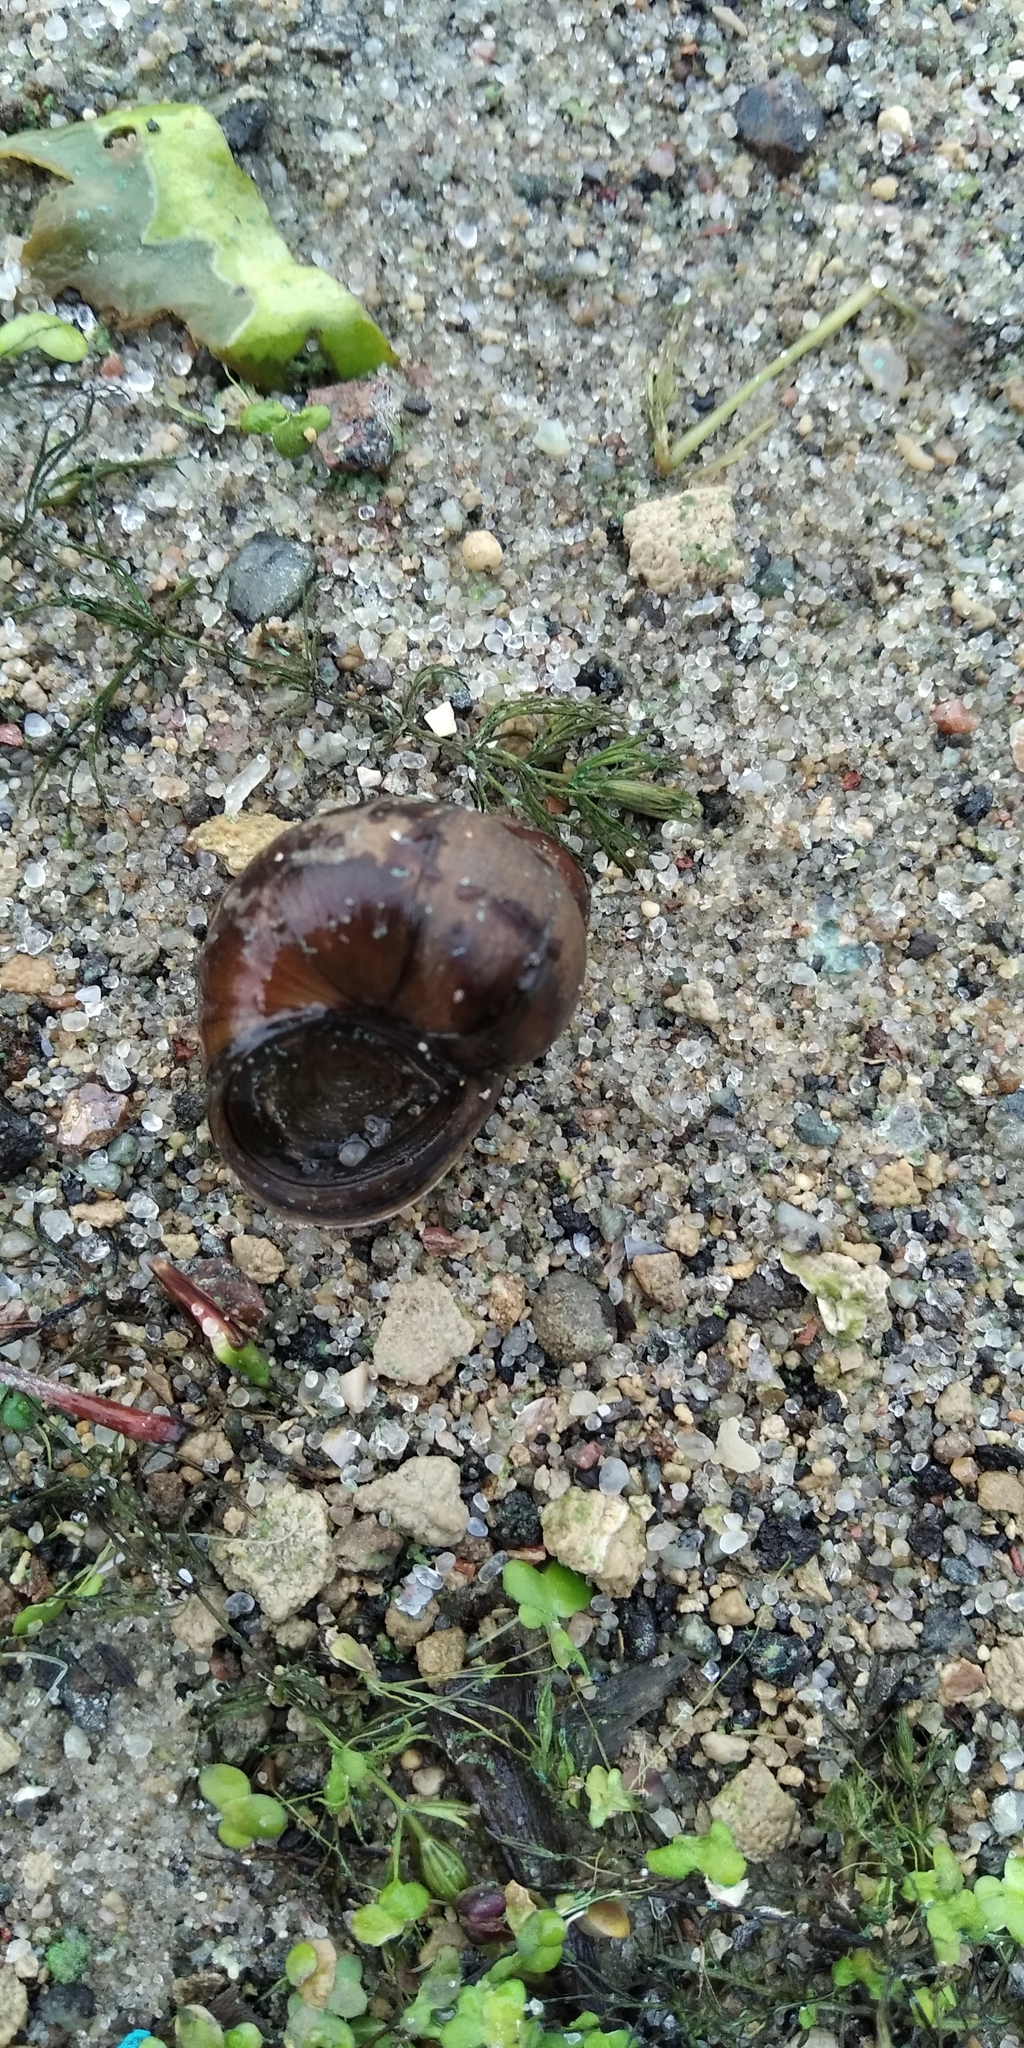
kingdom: Animalia
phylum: Mollusca
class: Gastropoda
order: Architaenioglossa
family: Viviparidae
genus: Viviparus
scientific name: Viviparus viviparus
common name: River snail
